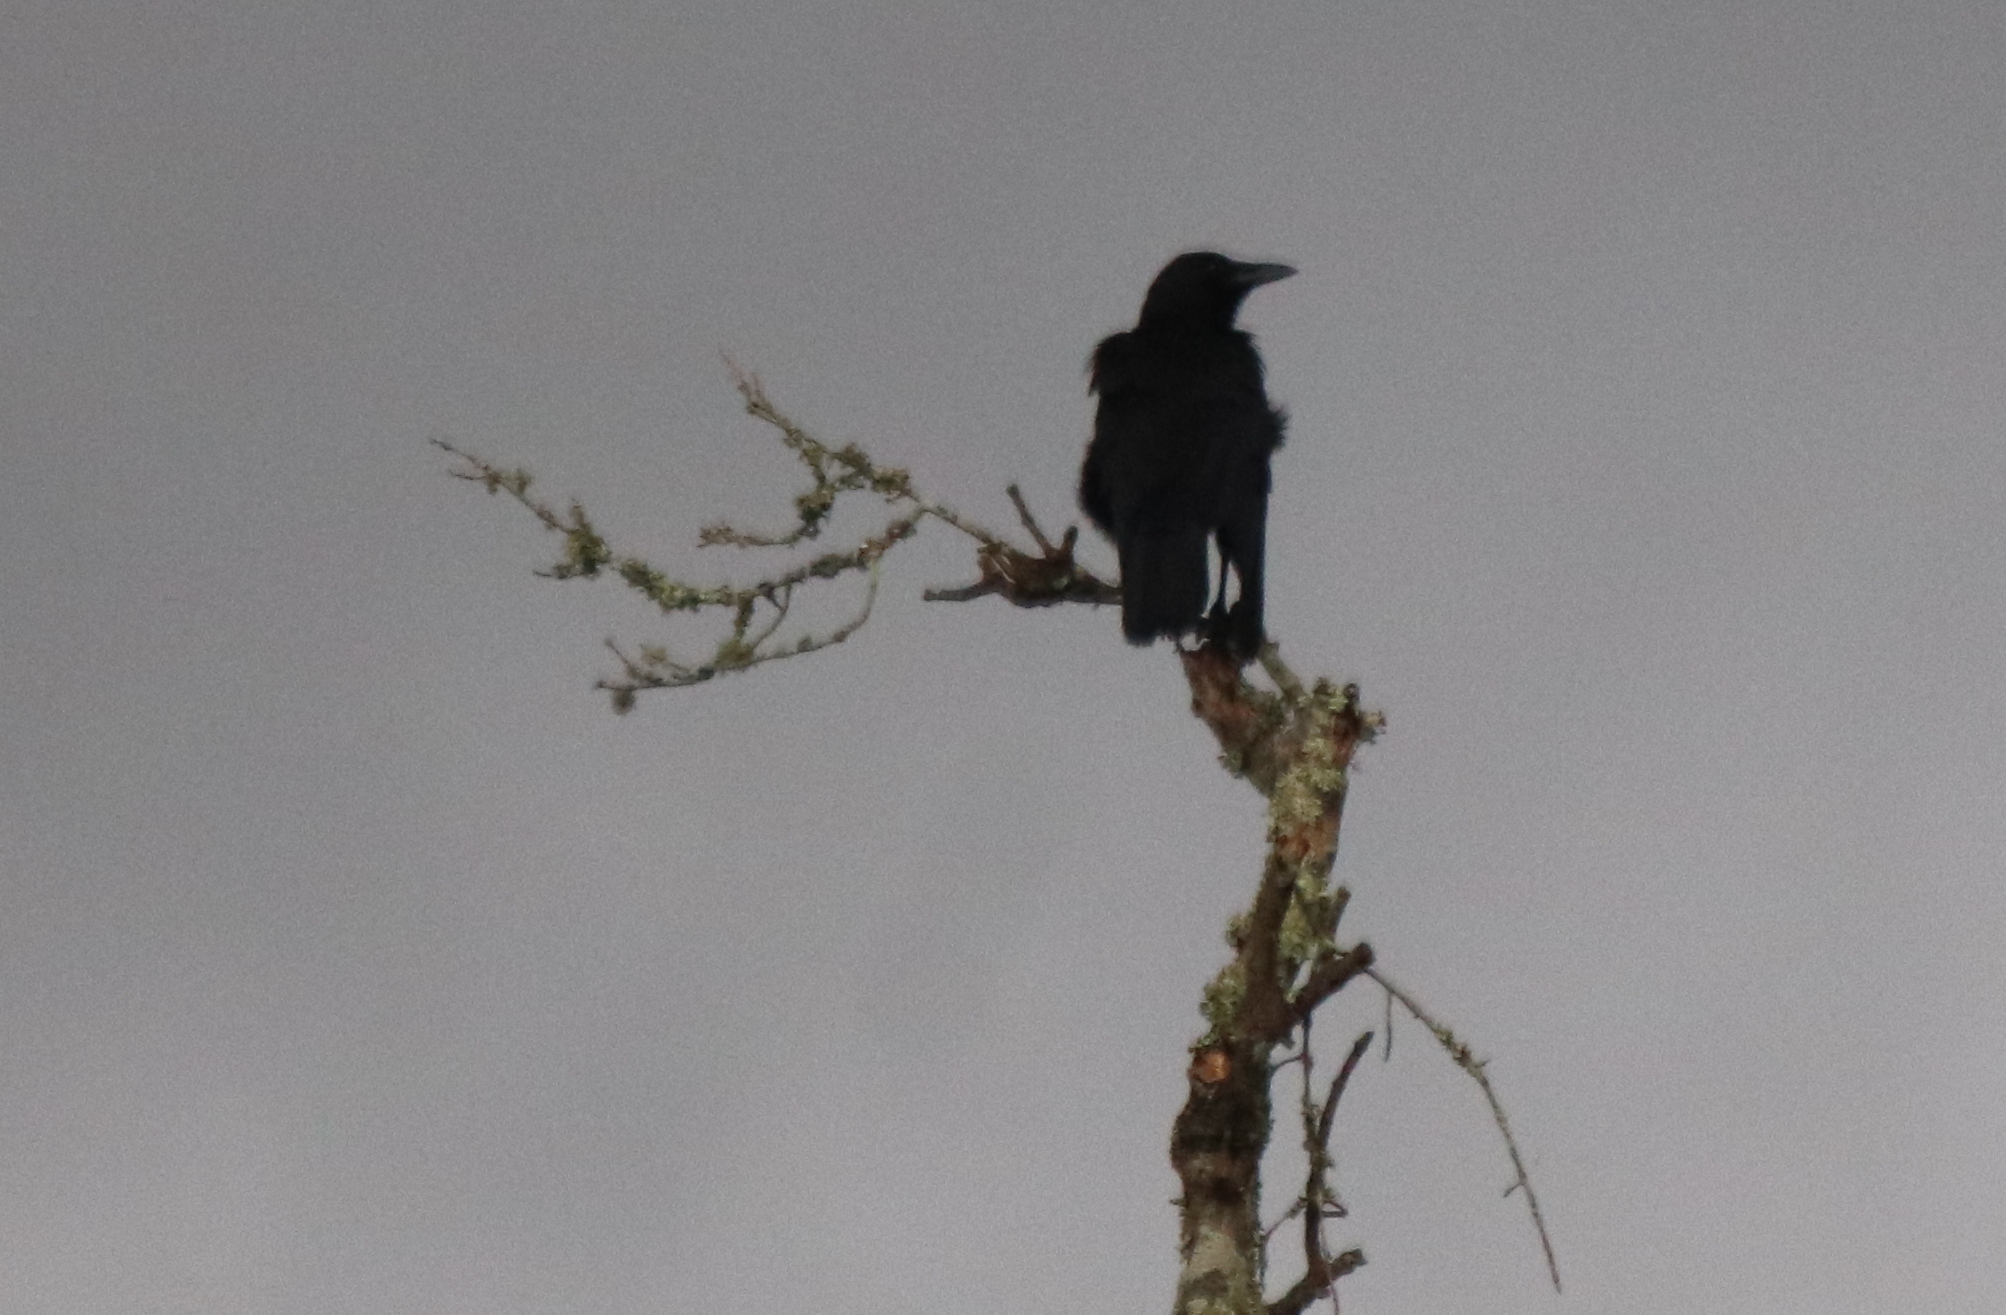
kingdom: Animalia
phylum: Chordata
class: Aves
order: Passeriformes
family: Corvidae
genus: Corvus
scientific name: Corvus
